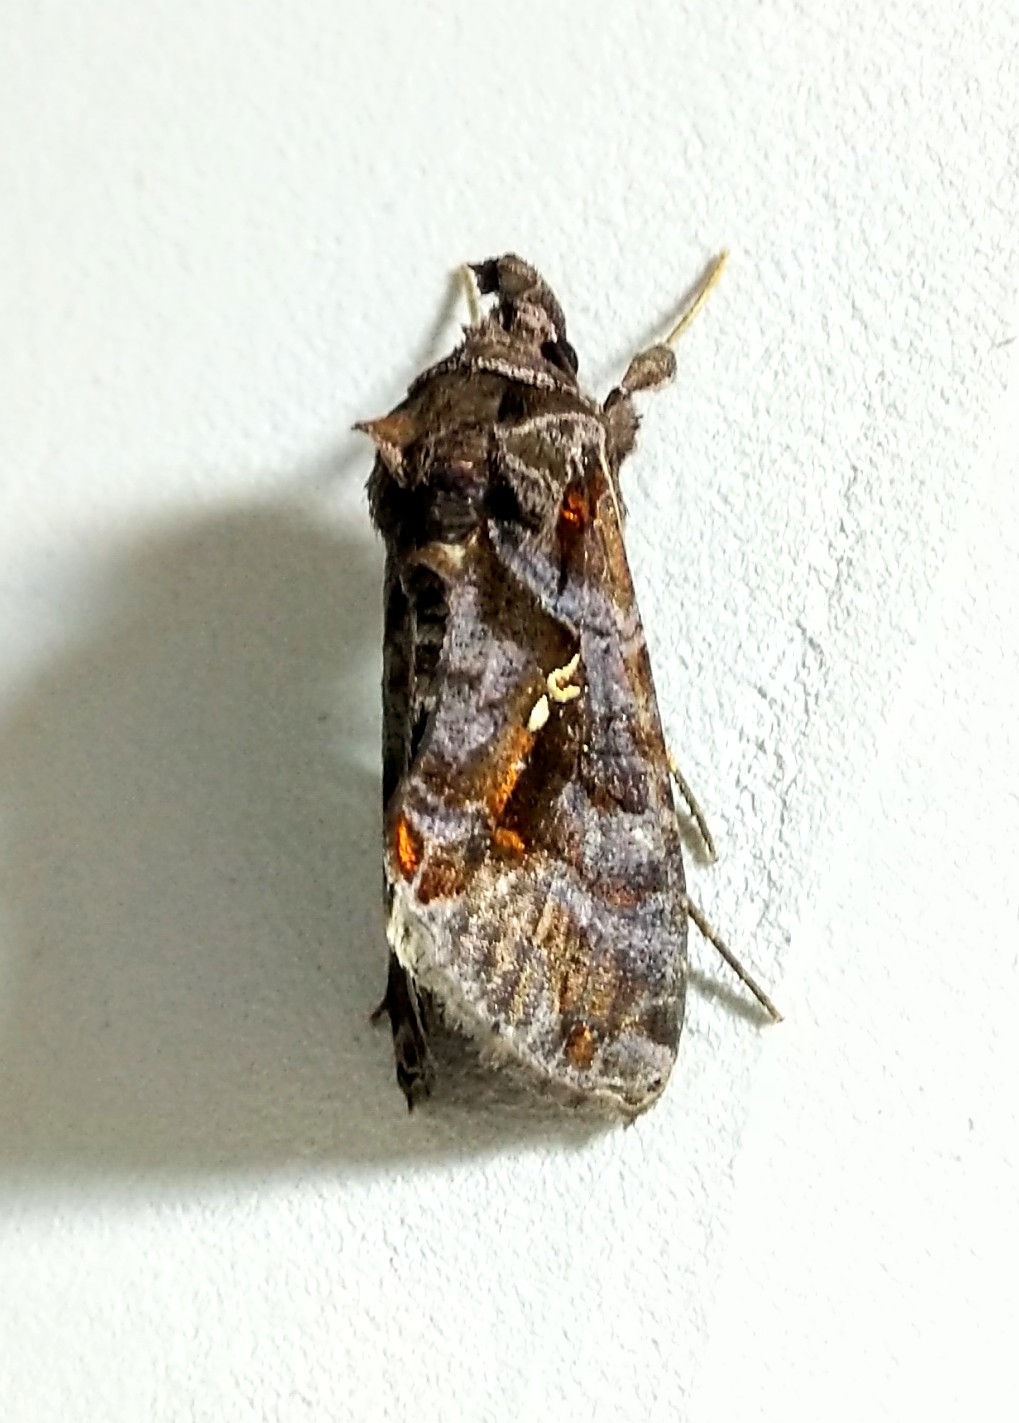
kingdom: Animalia
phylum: Arthropoda
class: Insecta
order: Lepidoptera
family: Noctuidae
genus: Plusiopalpa
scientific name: Plusiopalpa adrasta
